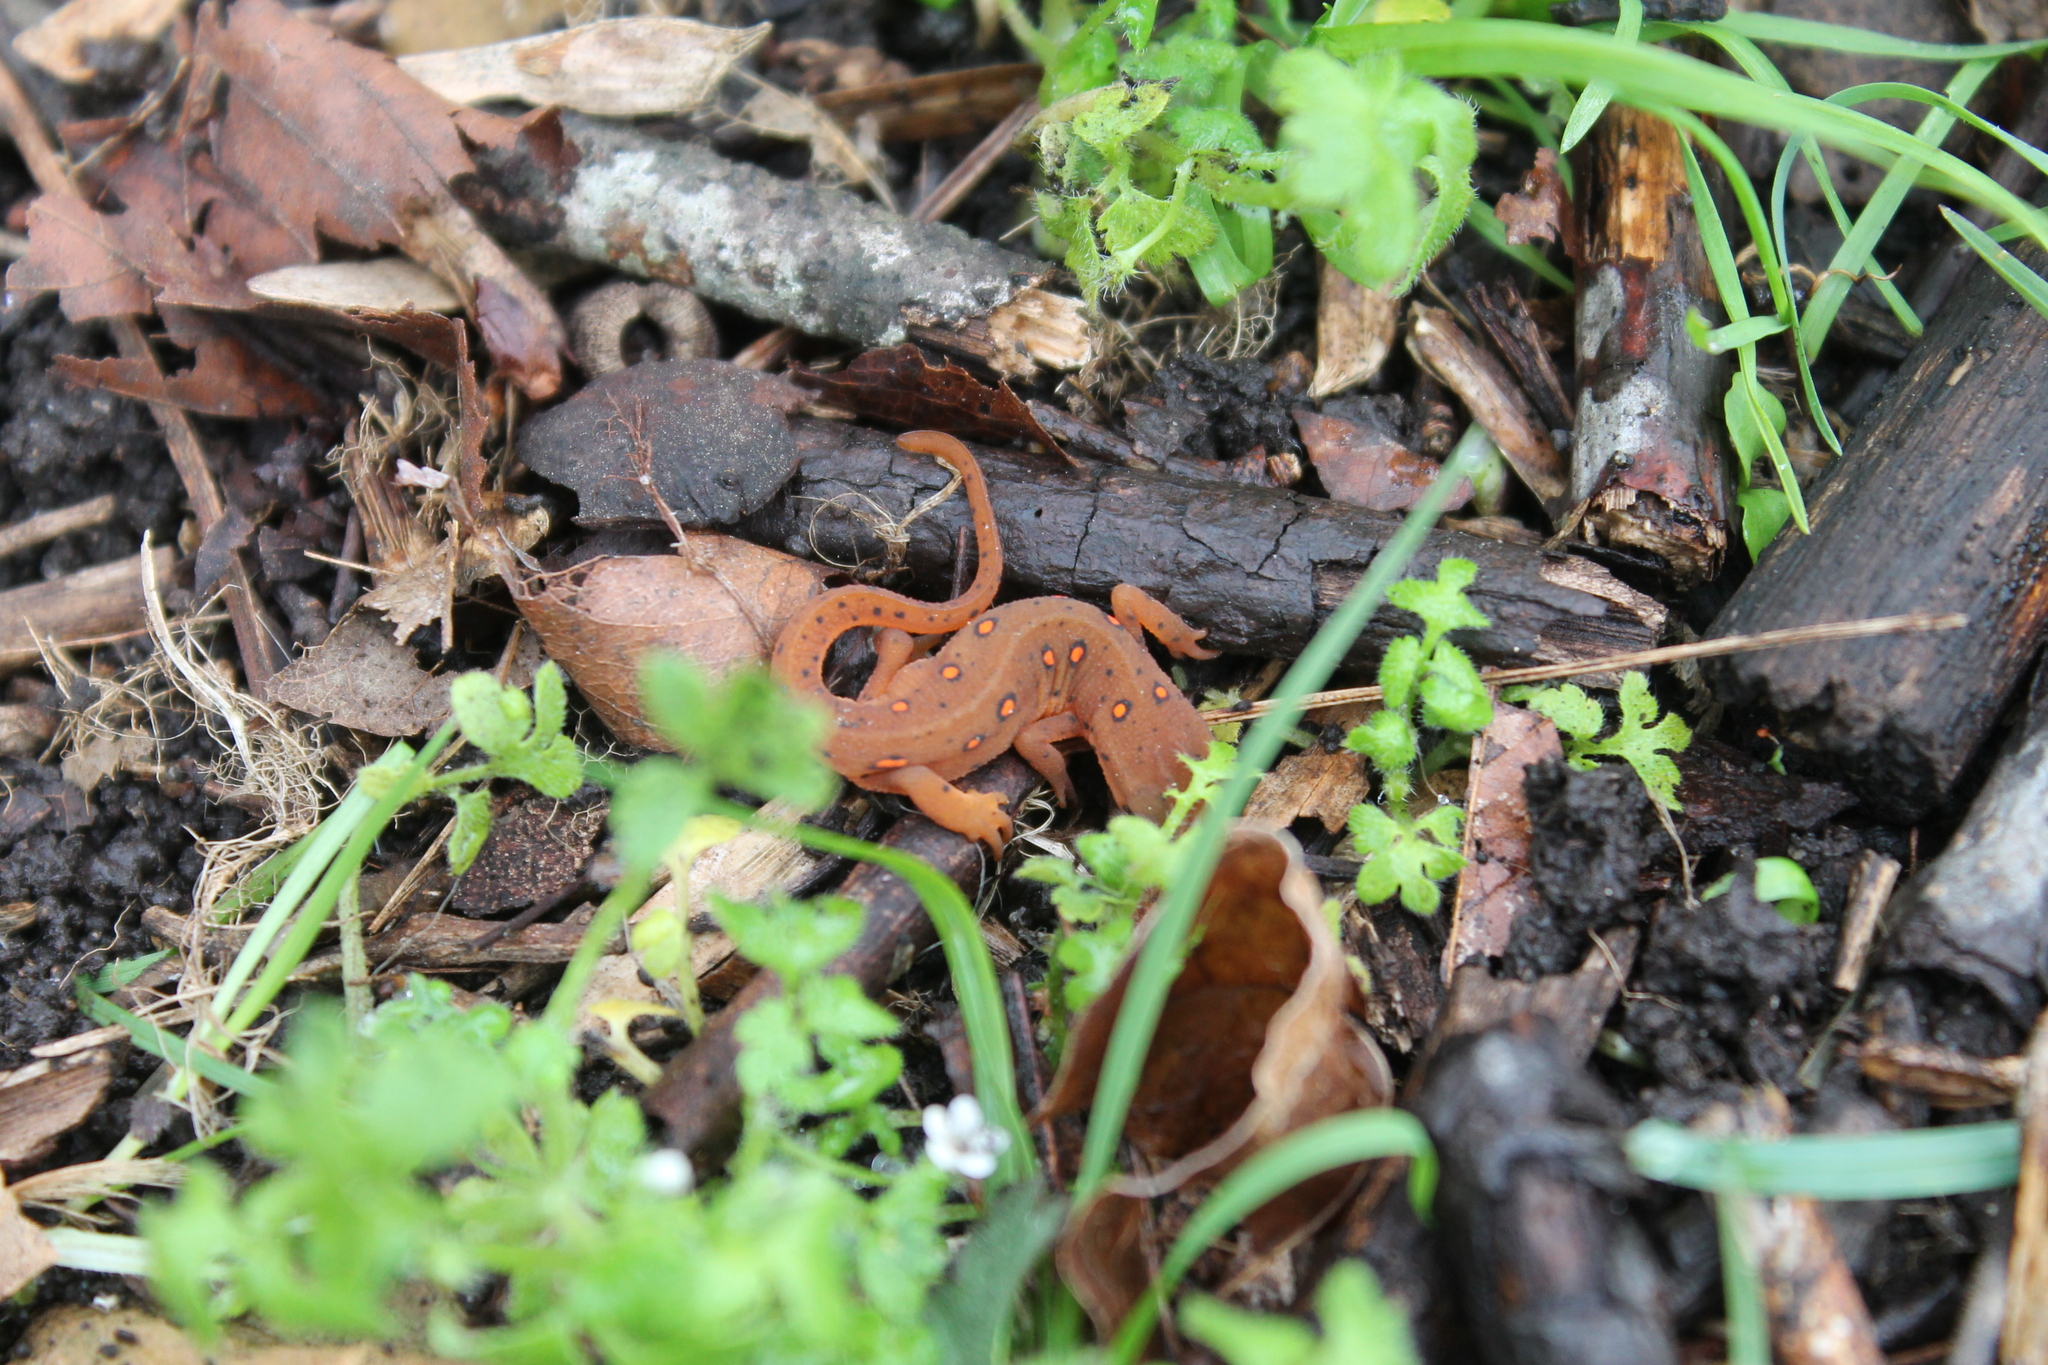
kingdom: Animalia
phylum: Chordata
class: Amphibia
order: Caudata
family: Salamandridae
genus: Notophthalmus
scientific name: Notophthalmus viridescens
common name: Eastern newt
